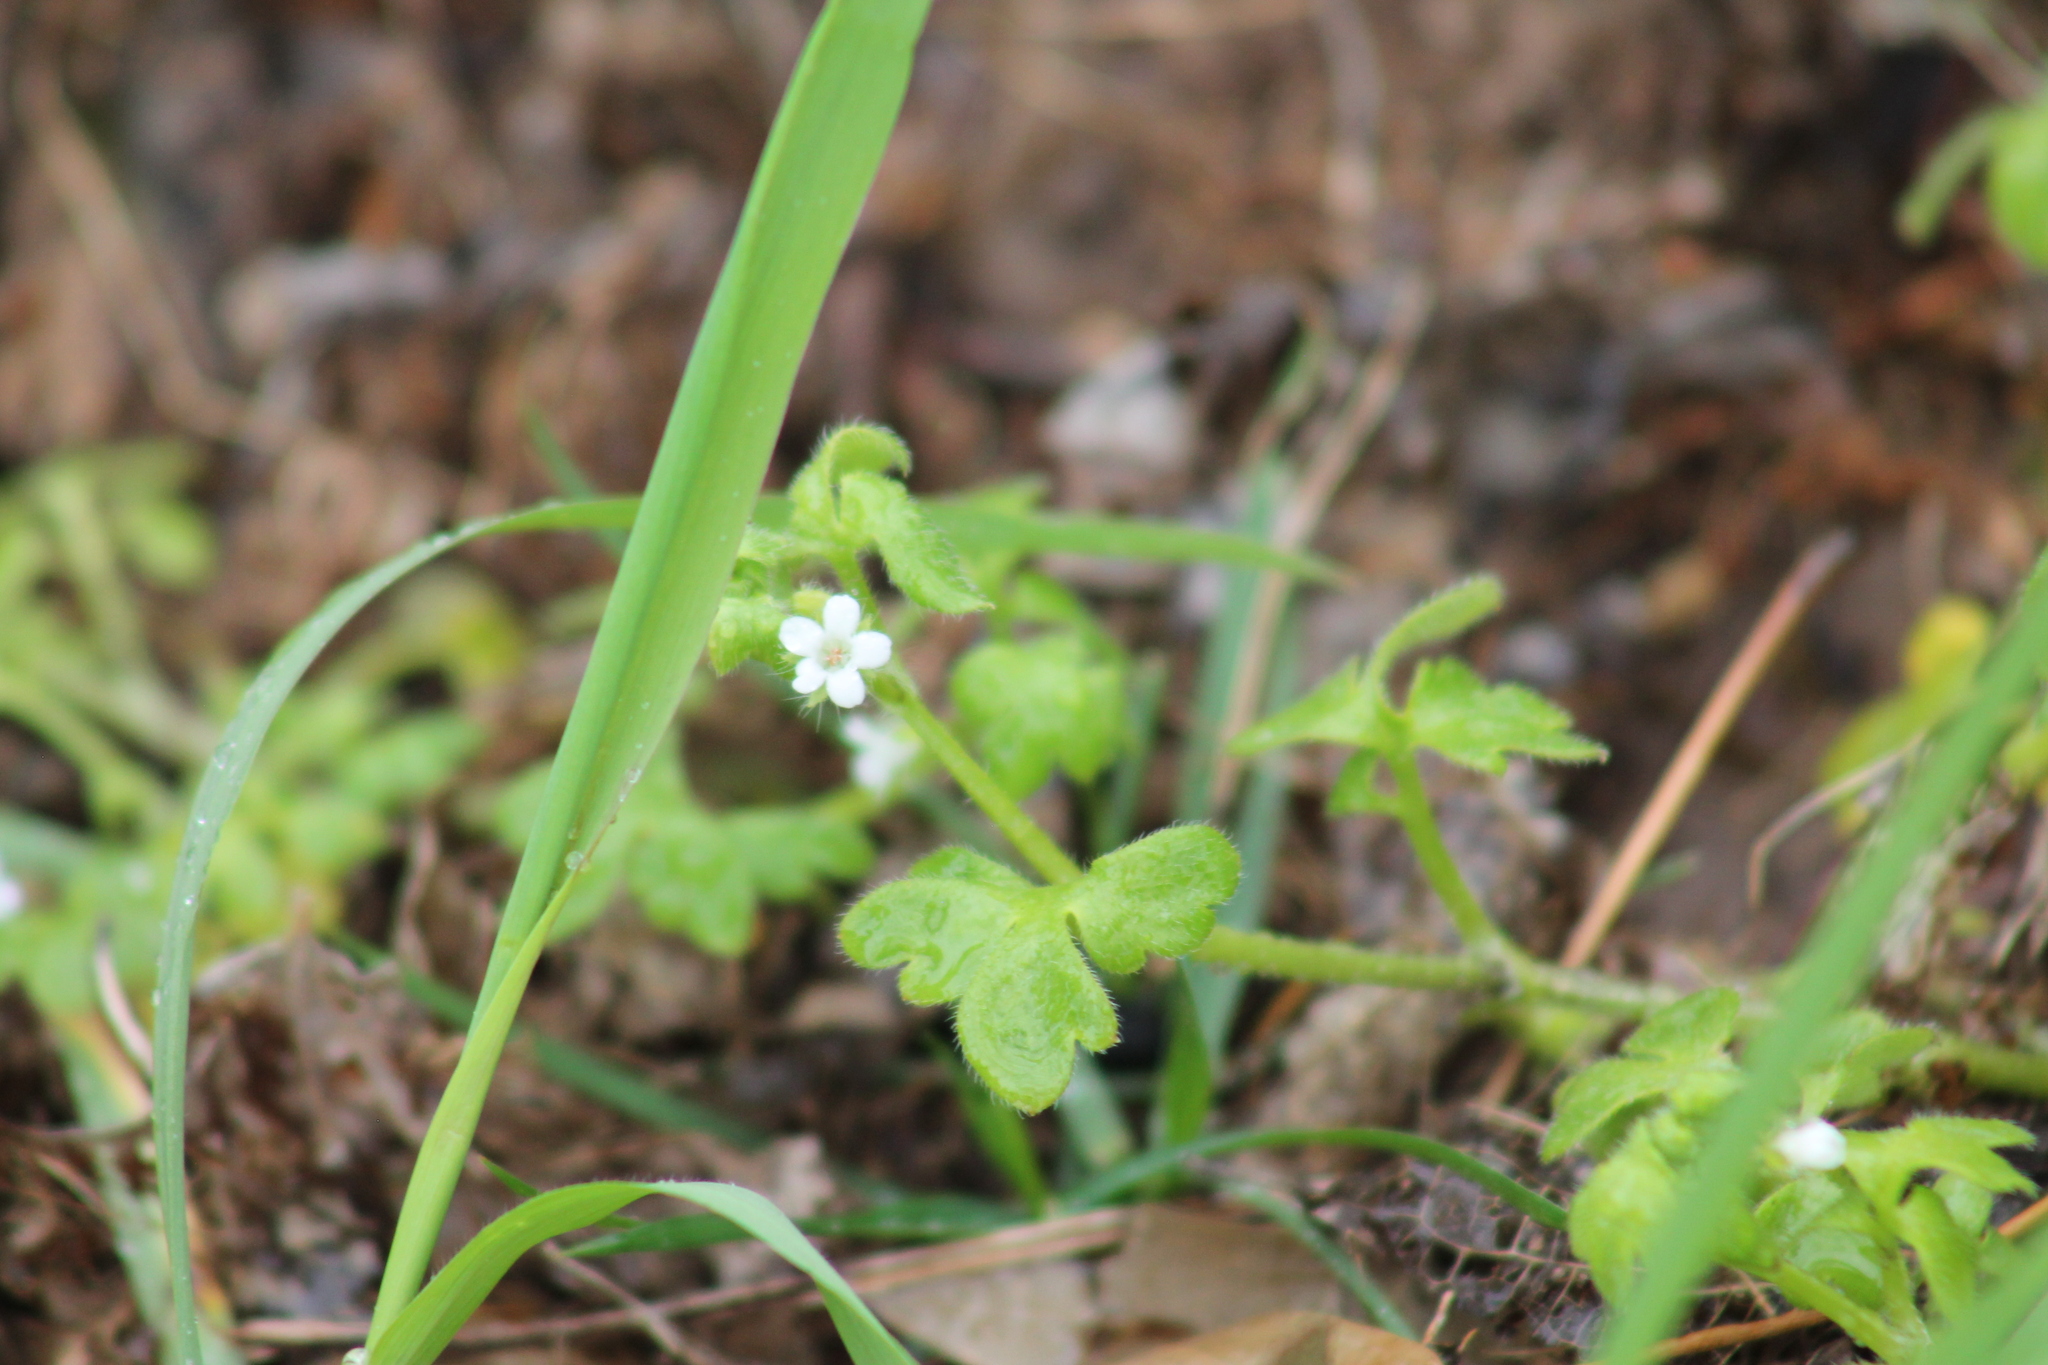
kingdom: Plantae
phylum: Tracheophyta
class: Magnoliopsida
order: Boraginales
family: Hydrophyllaceae
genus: Nemophila
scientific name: Nemophila aphylla
